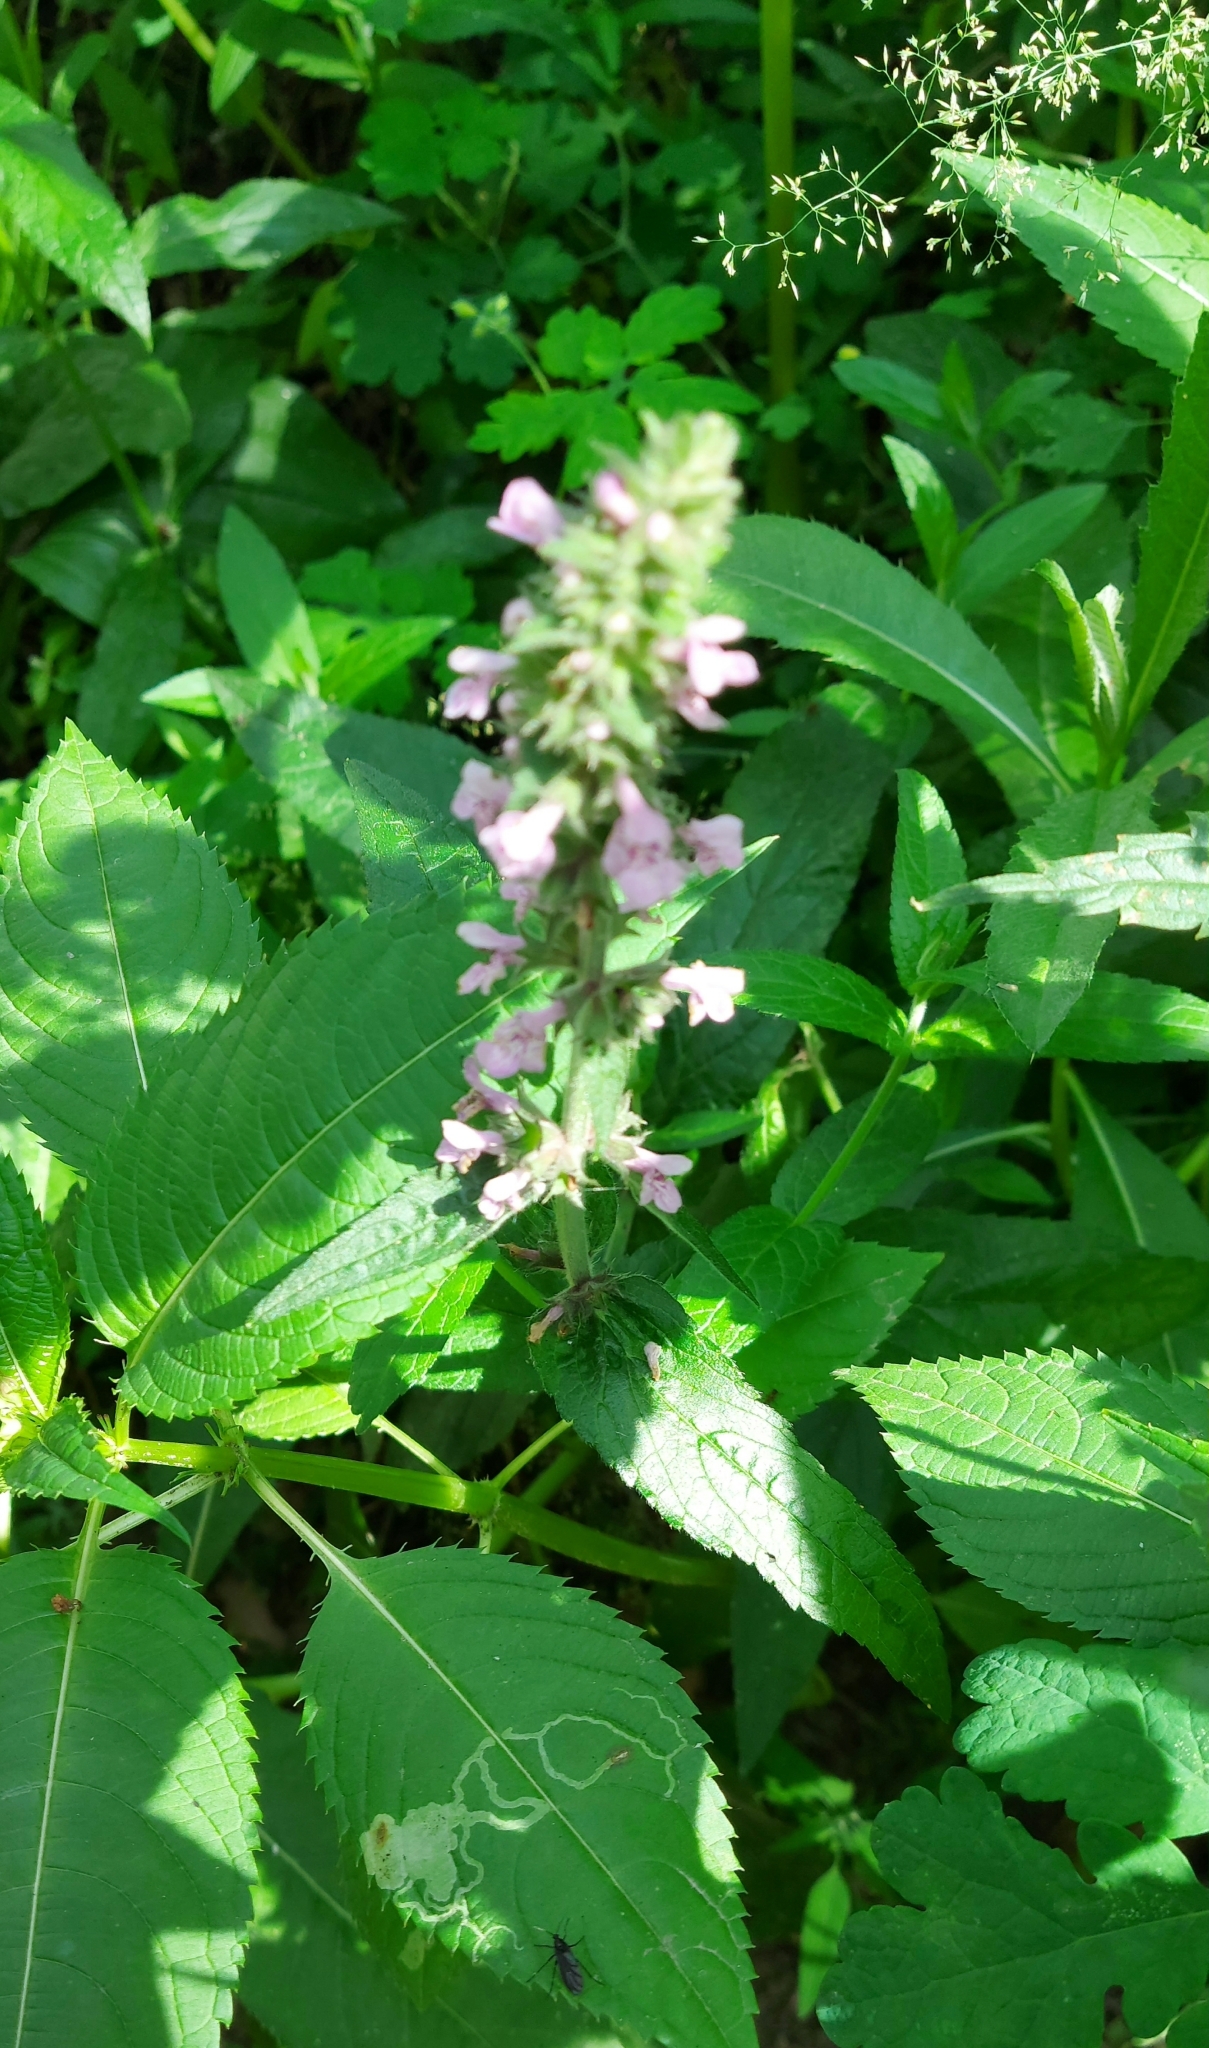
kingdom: Plantae
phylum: Tracheophyta
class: Magnoliopsida
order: Lamiales
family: Lamiaceae
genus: Stachys
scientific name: Stachys palustris
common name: Marsh woundwort
